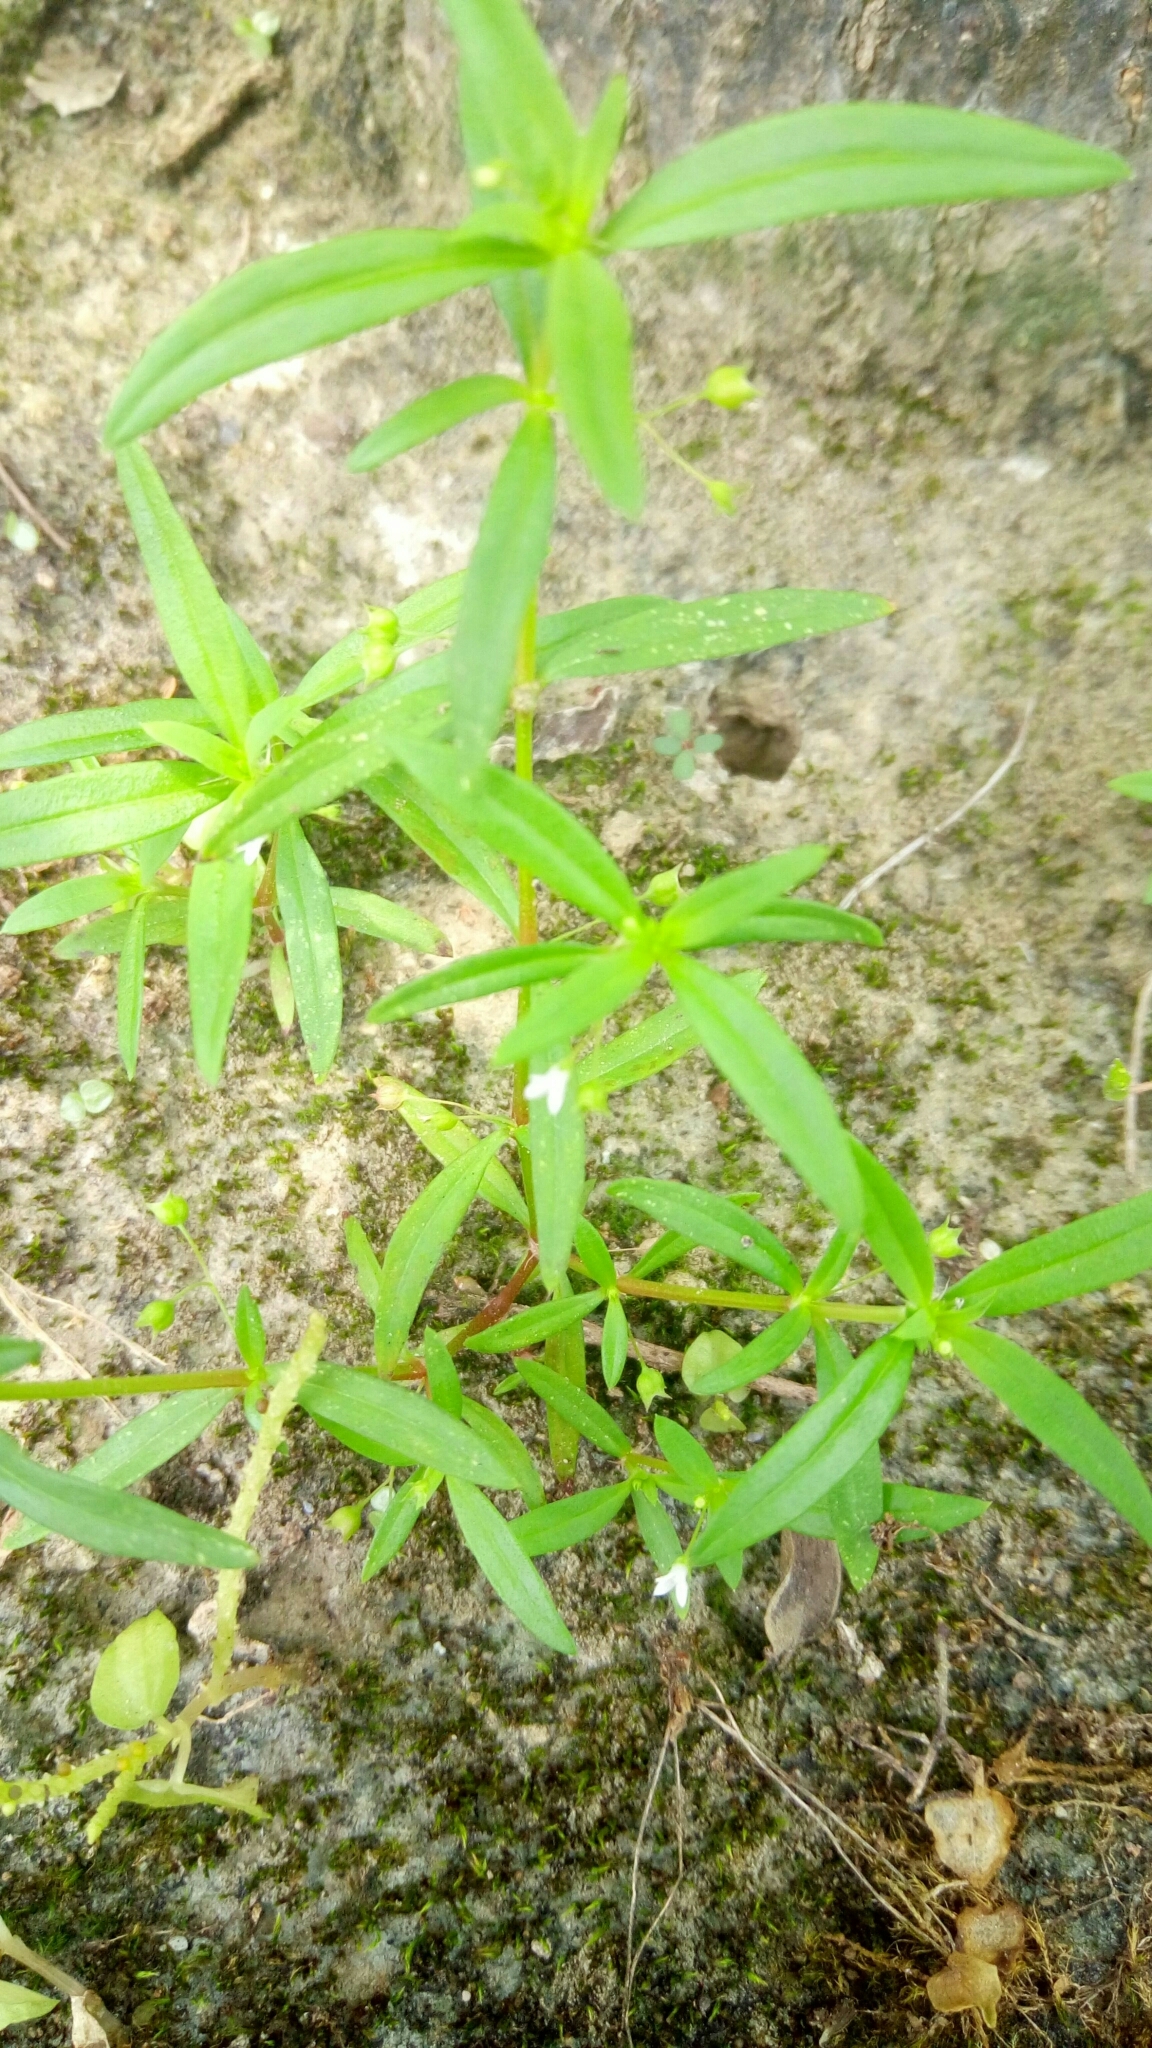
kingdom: Plantae
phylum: Tracheophyta
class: Magnoliopsida
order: Gentianales
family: Rubiaceae
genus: Oldenlandia
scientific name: Oldenlandia corymbosa
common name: Flat-top mille graines
